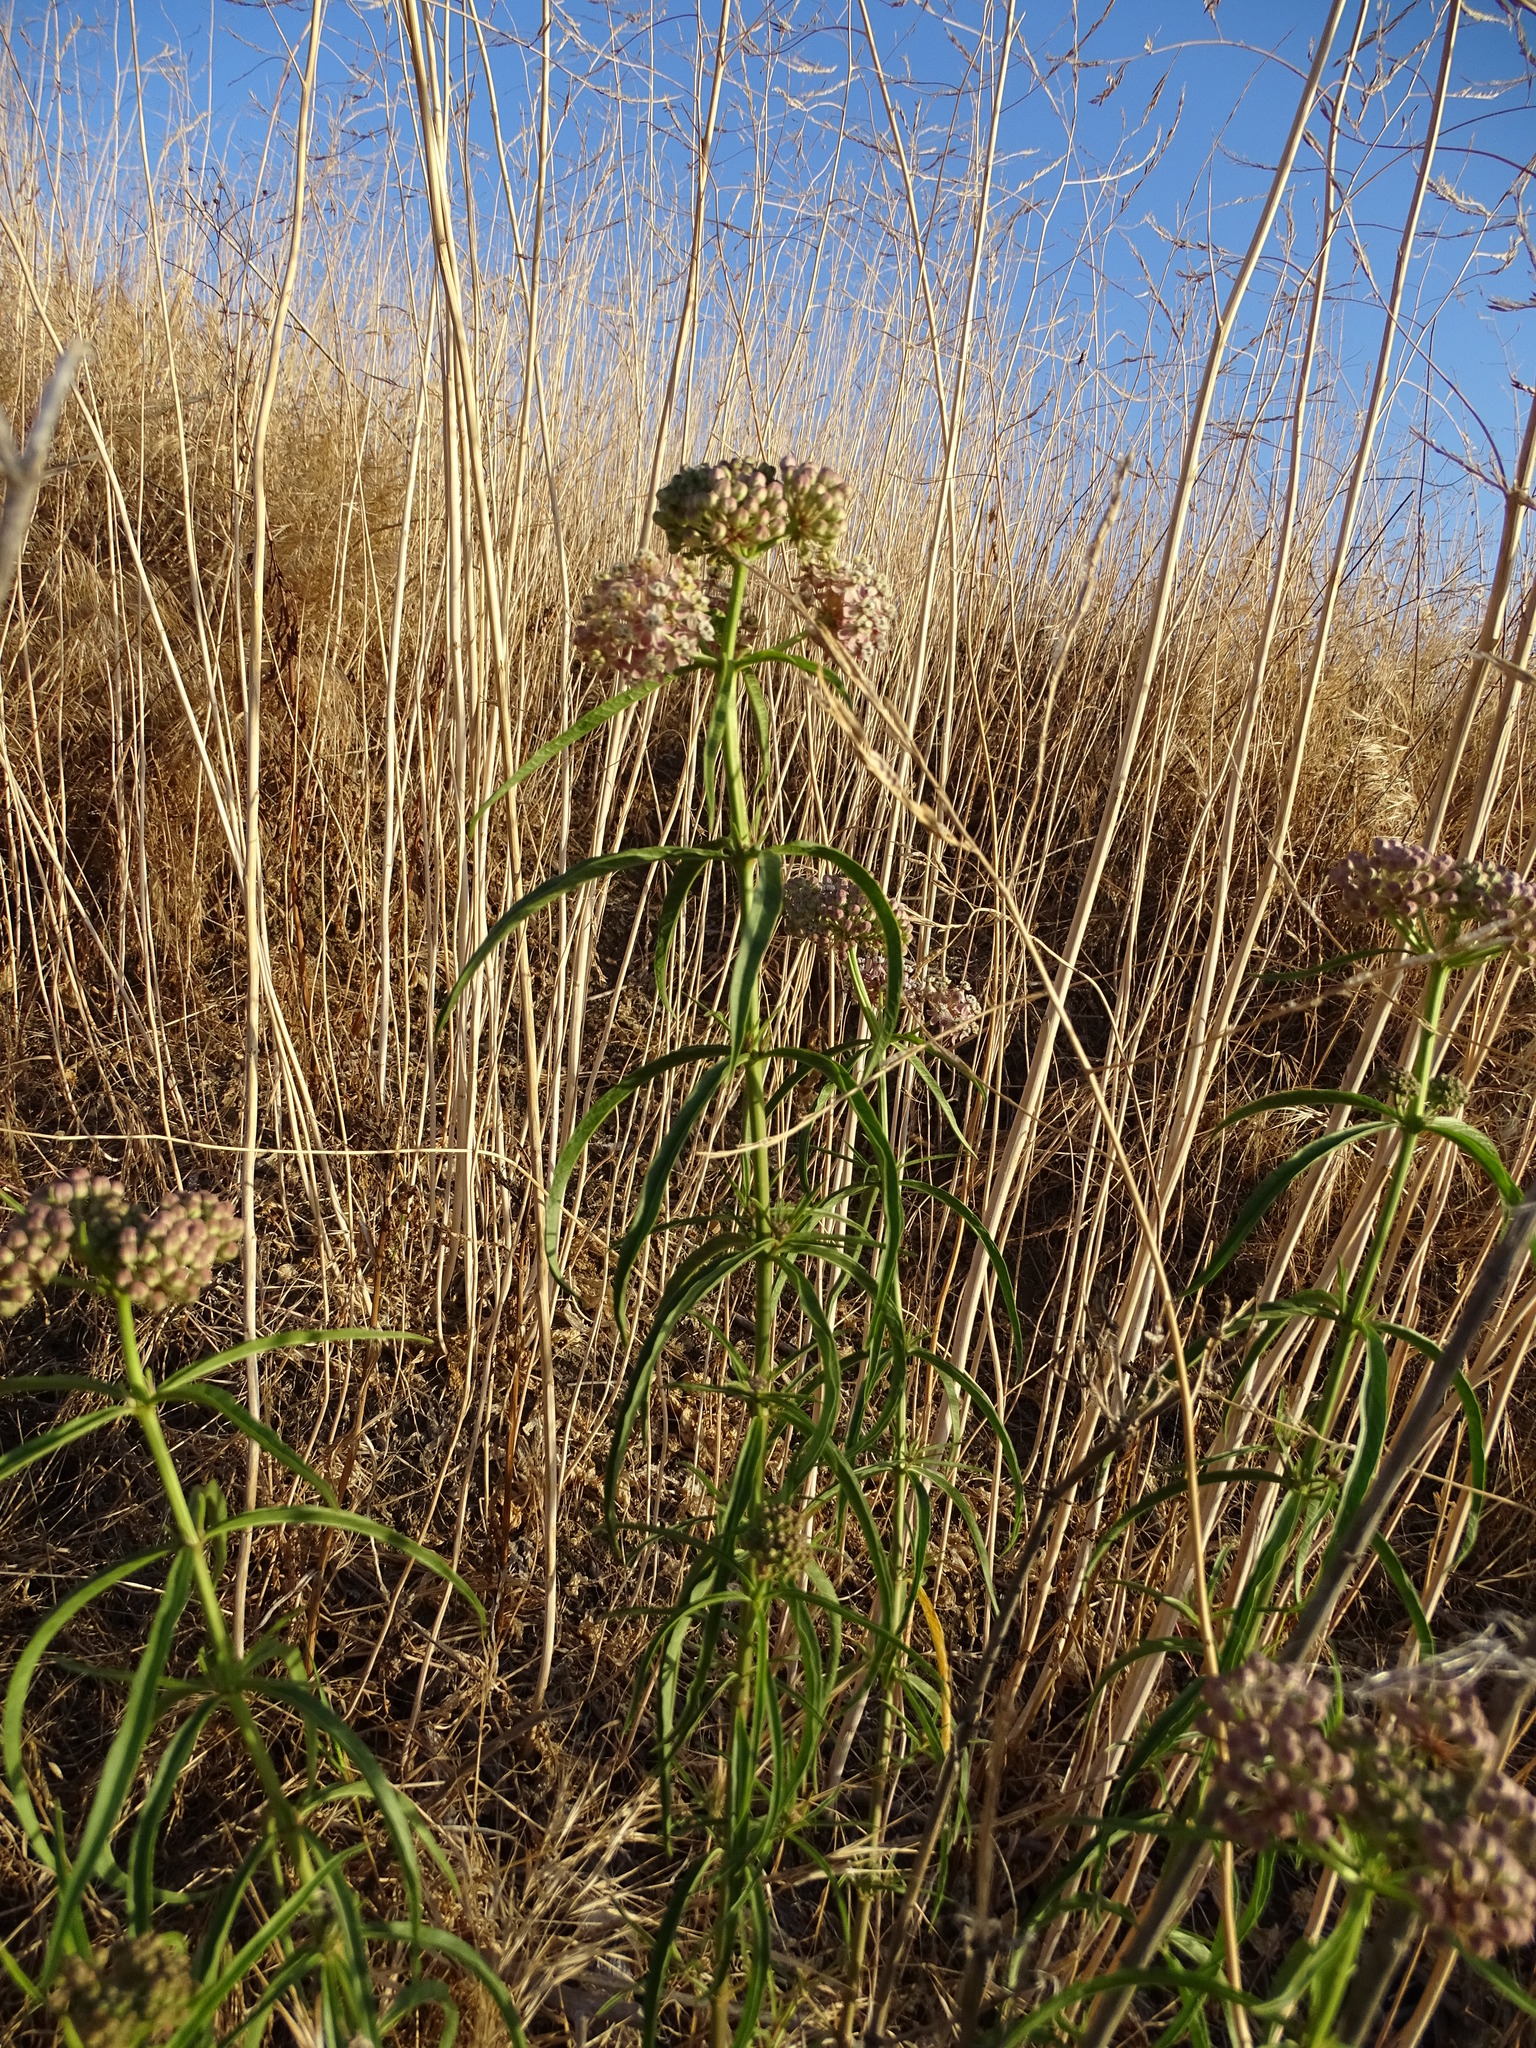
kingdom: Plantae
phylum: Tracheophyta
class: Magnoliopsida
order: Gentianales
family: Apocynaceae
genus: Asclepias
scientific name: Asclepias fascicularis
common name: Mexican milkweed
